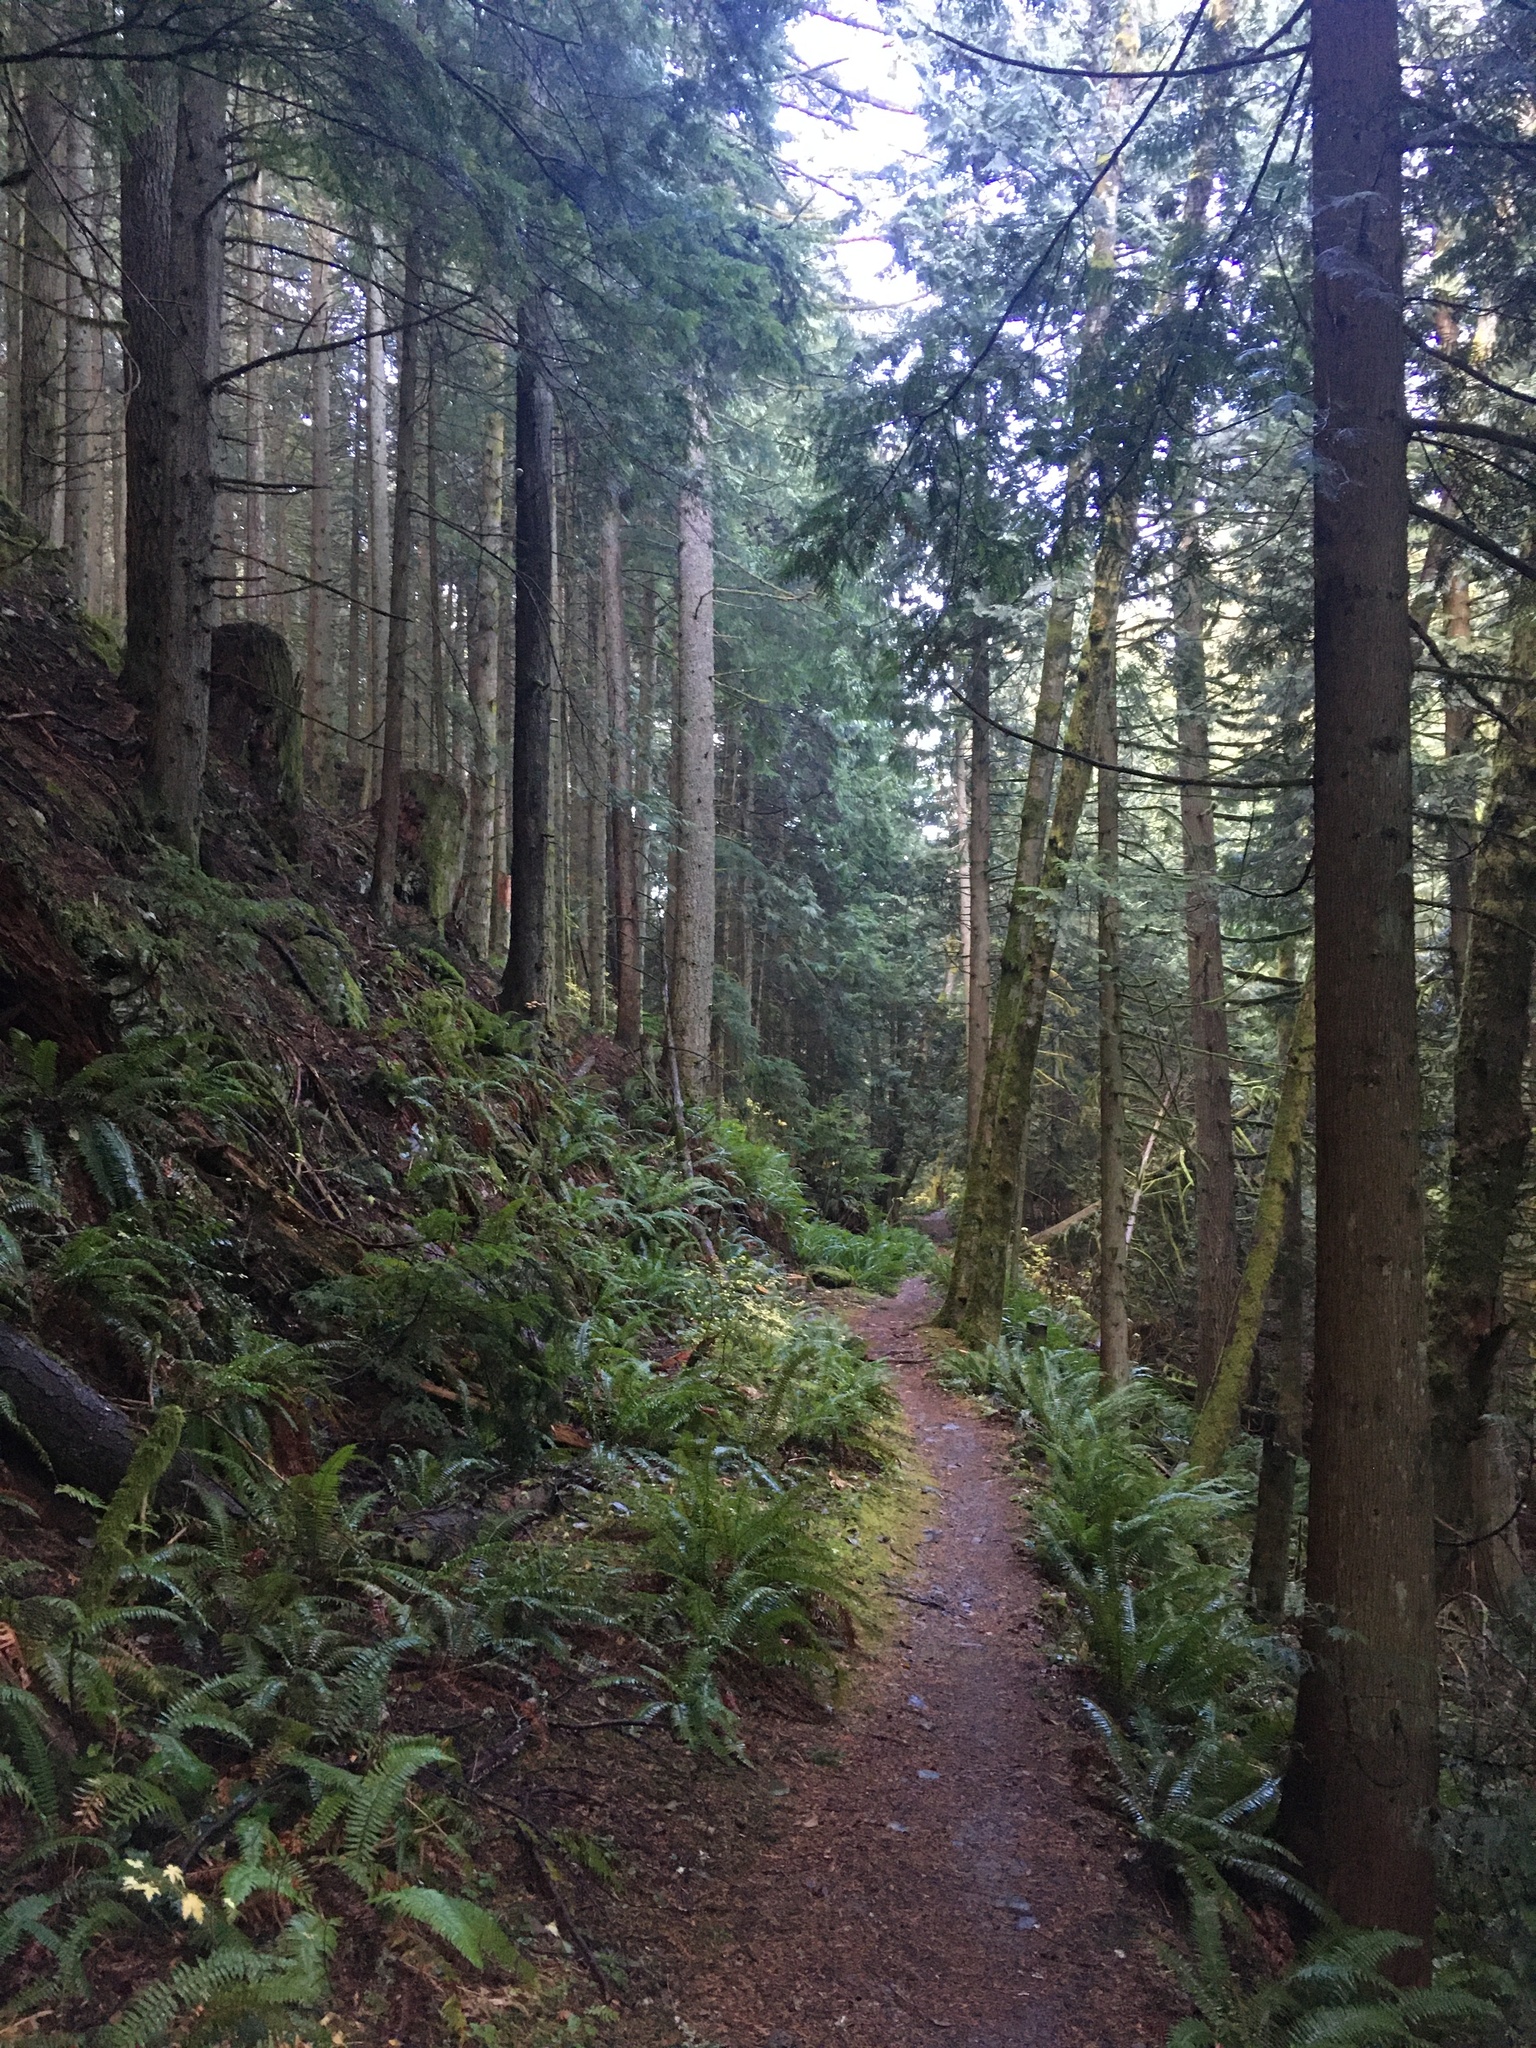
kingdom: Plantae
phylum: Tracheophyta
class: Pinopsida
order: Pinales
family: Cupressaceae
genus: Thuja
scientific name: Thuja plicata
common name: Western red-cedar
